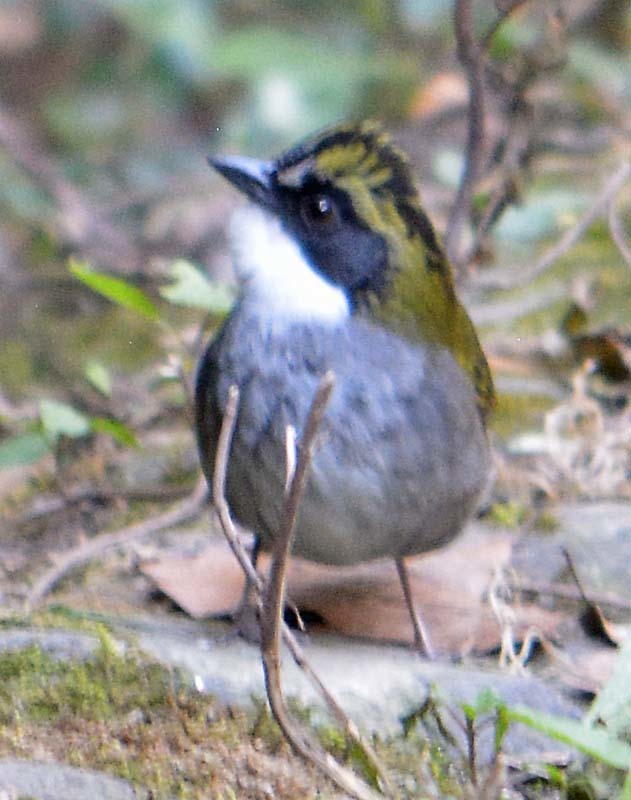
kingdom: Animalia
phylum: Chordata
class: Aves
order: Passeriformes
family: Passerellidae
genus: Arremon
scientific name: Arremon virenticeps
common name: Green-striped brushfinch
